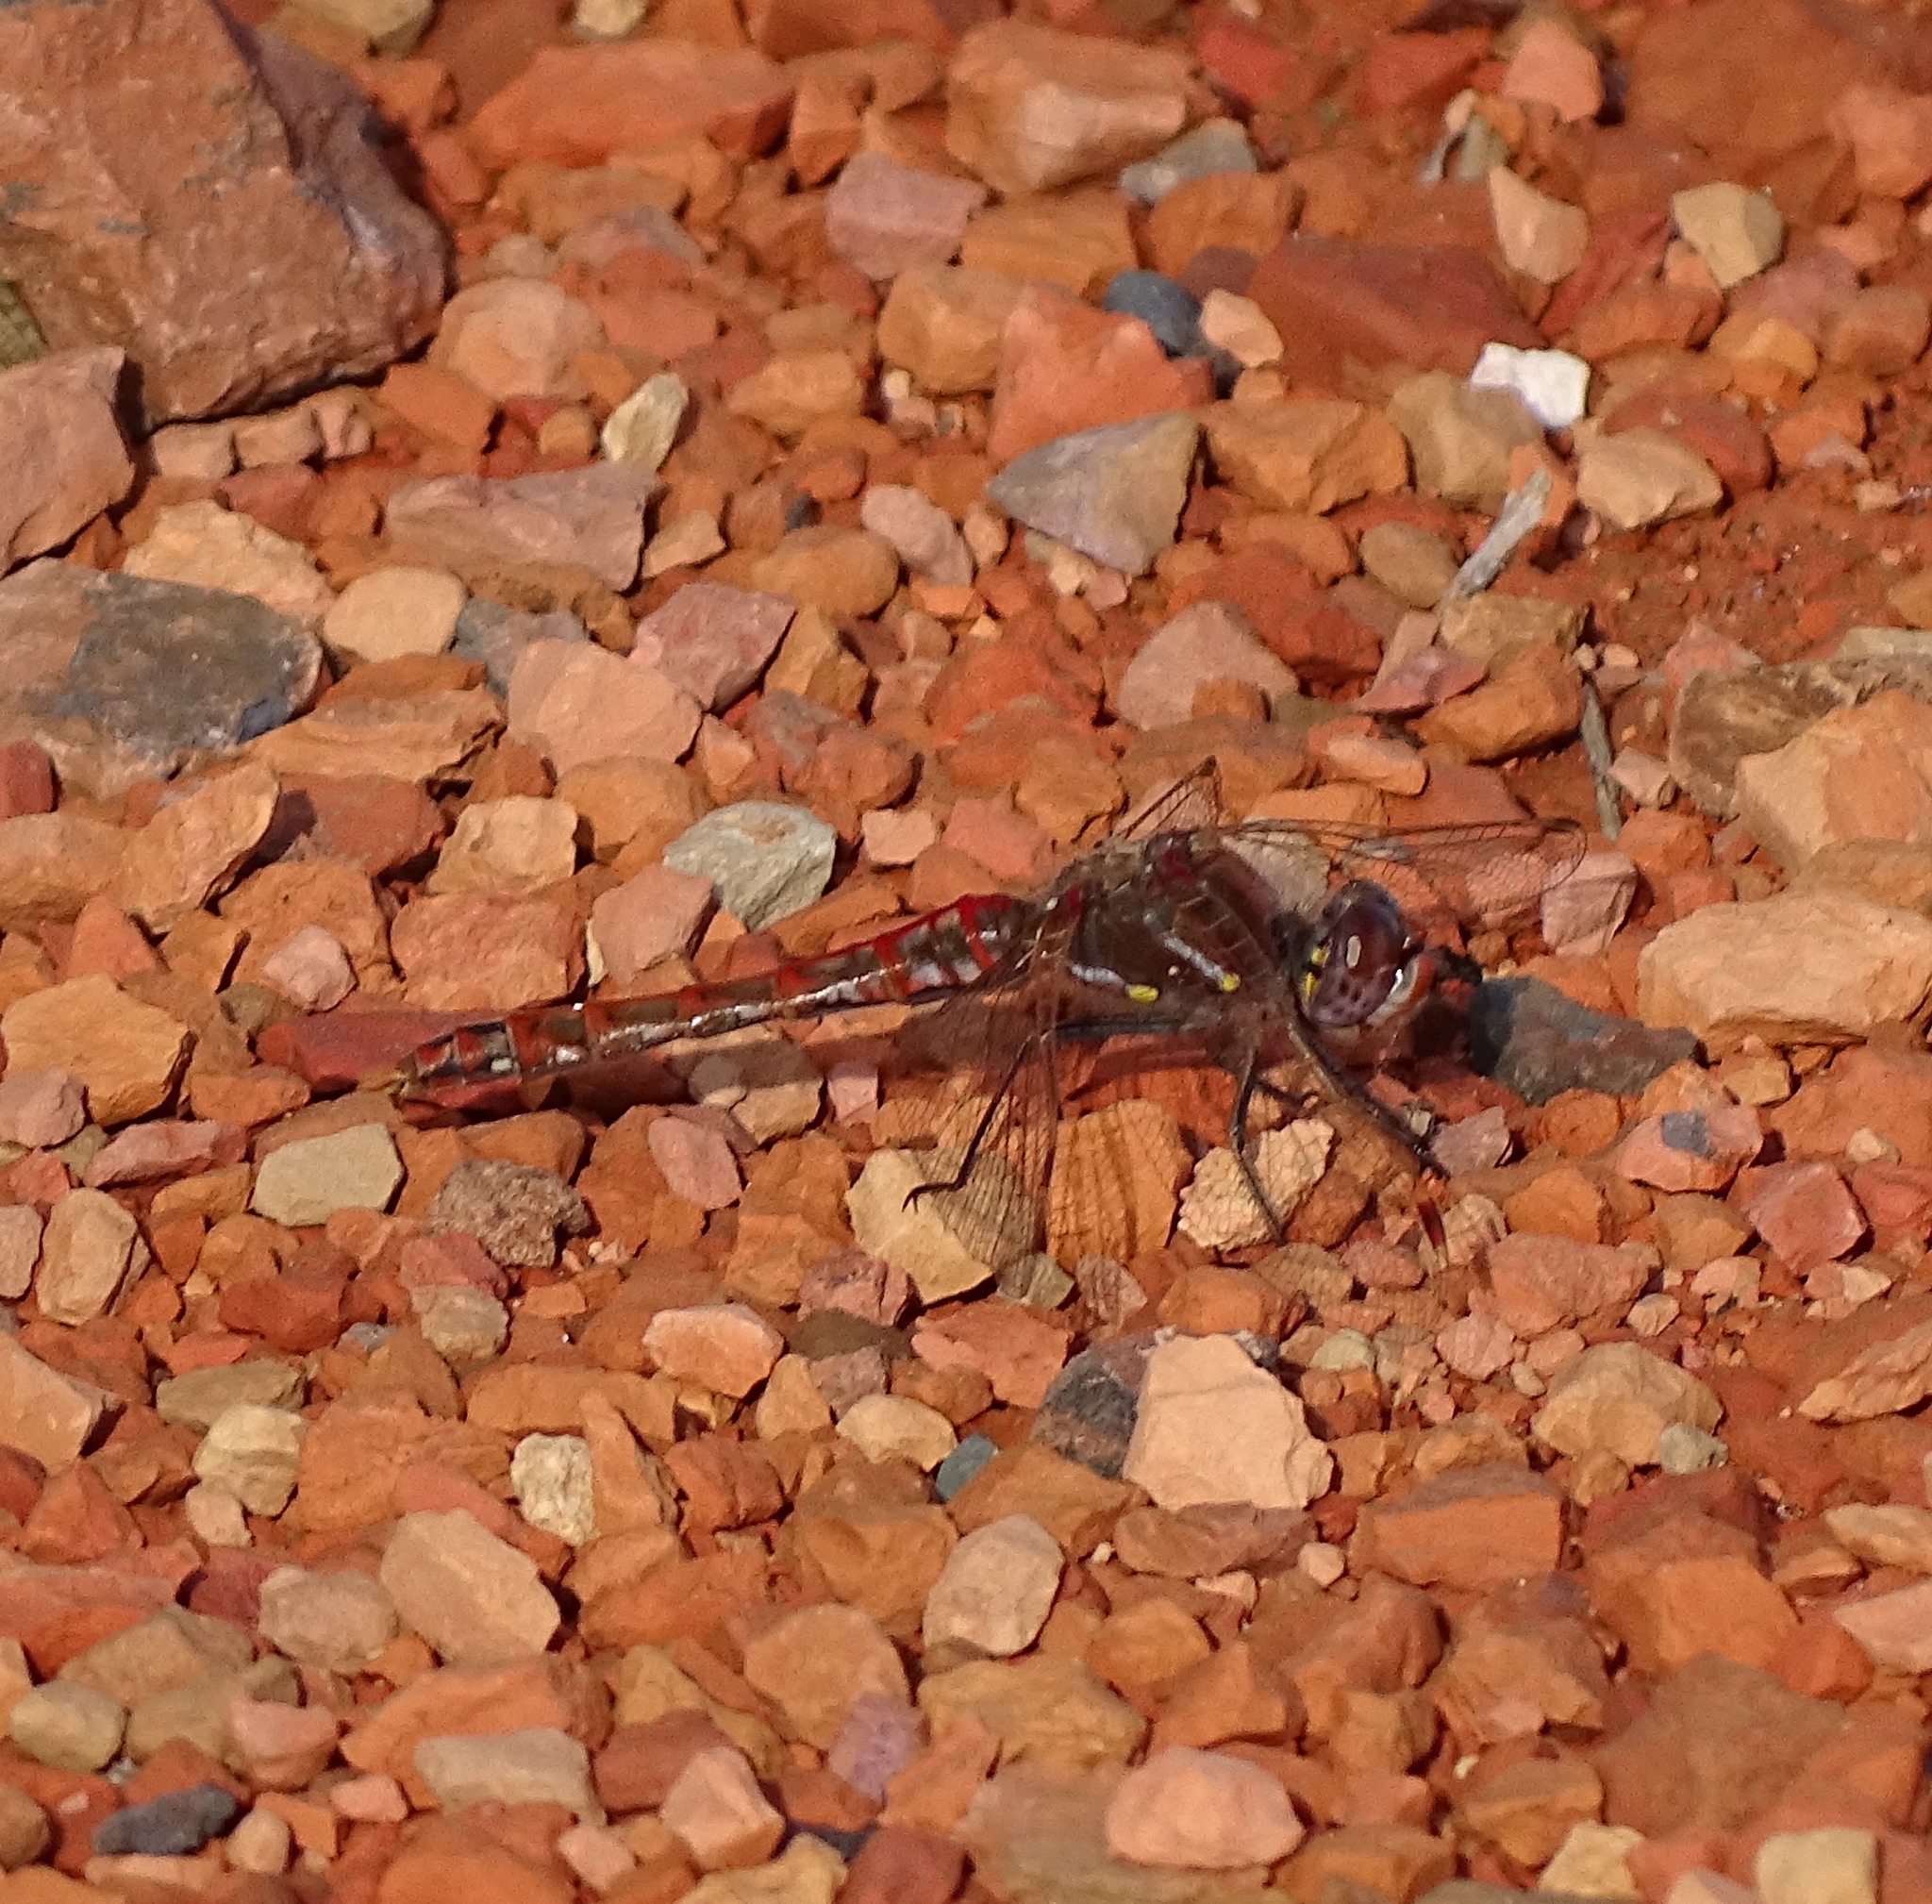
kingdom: Animalia
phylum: Arthropoda
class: Insecta
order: Odonata
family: Libellulidae
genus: Sympetrum
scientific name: Sympetrum corruptum
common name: Variegated meadowhawk
